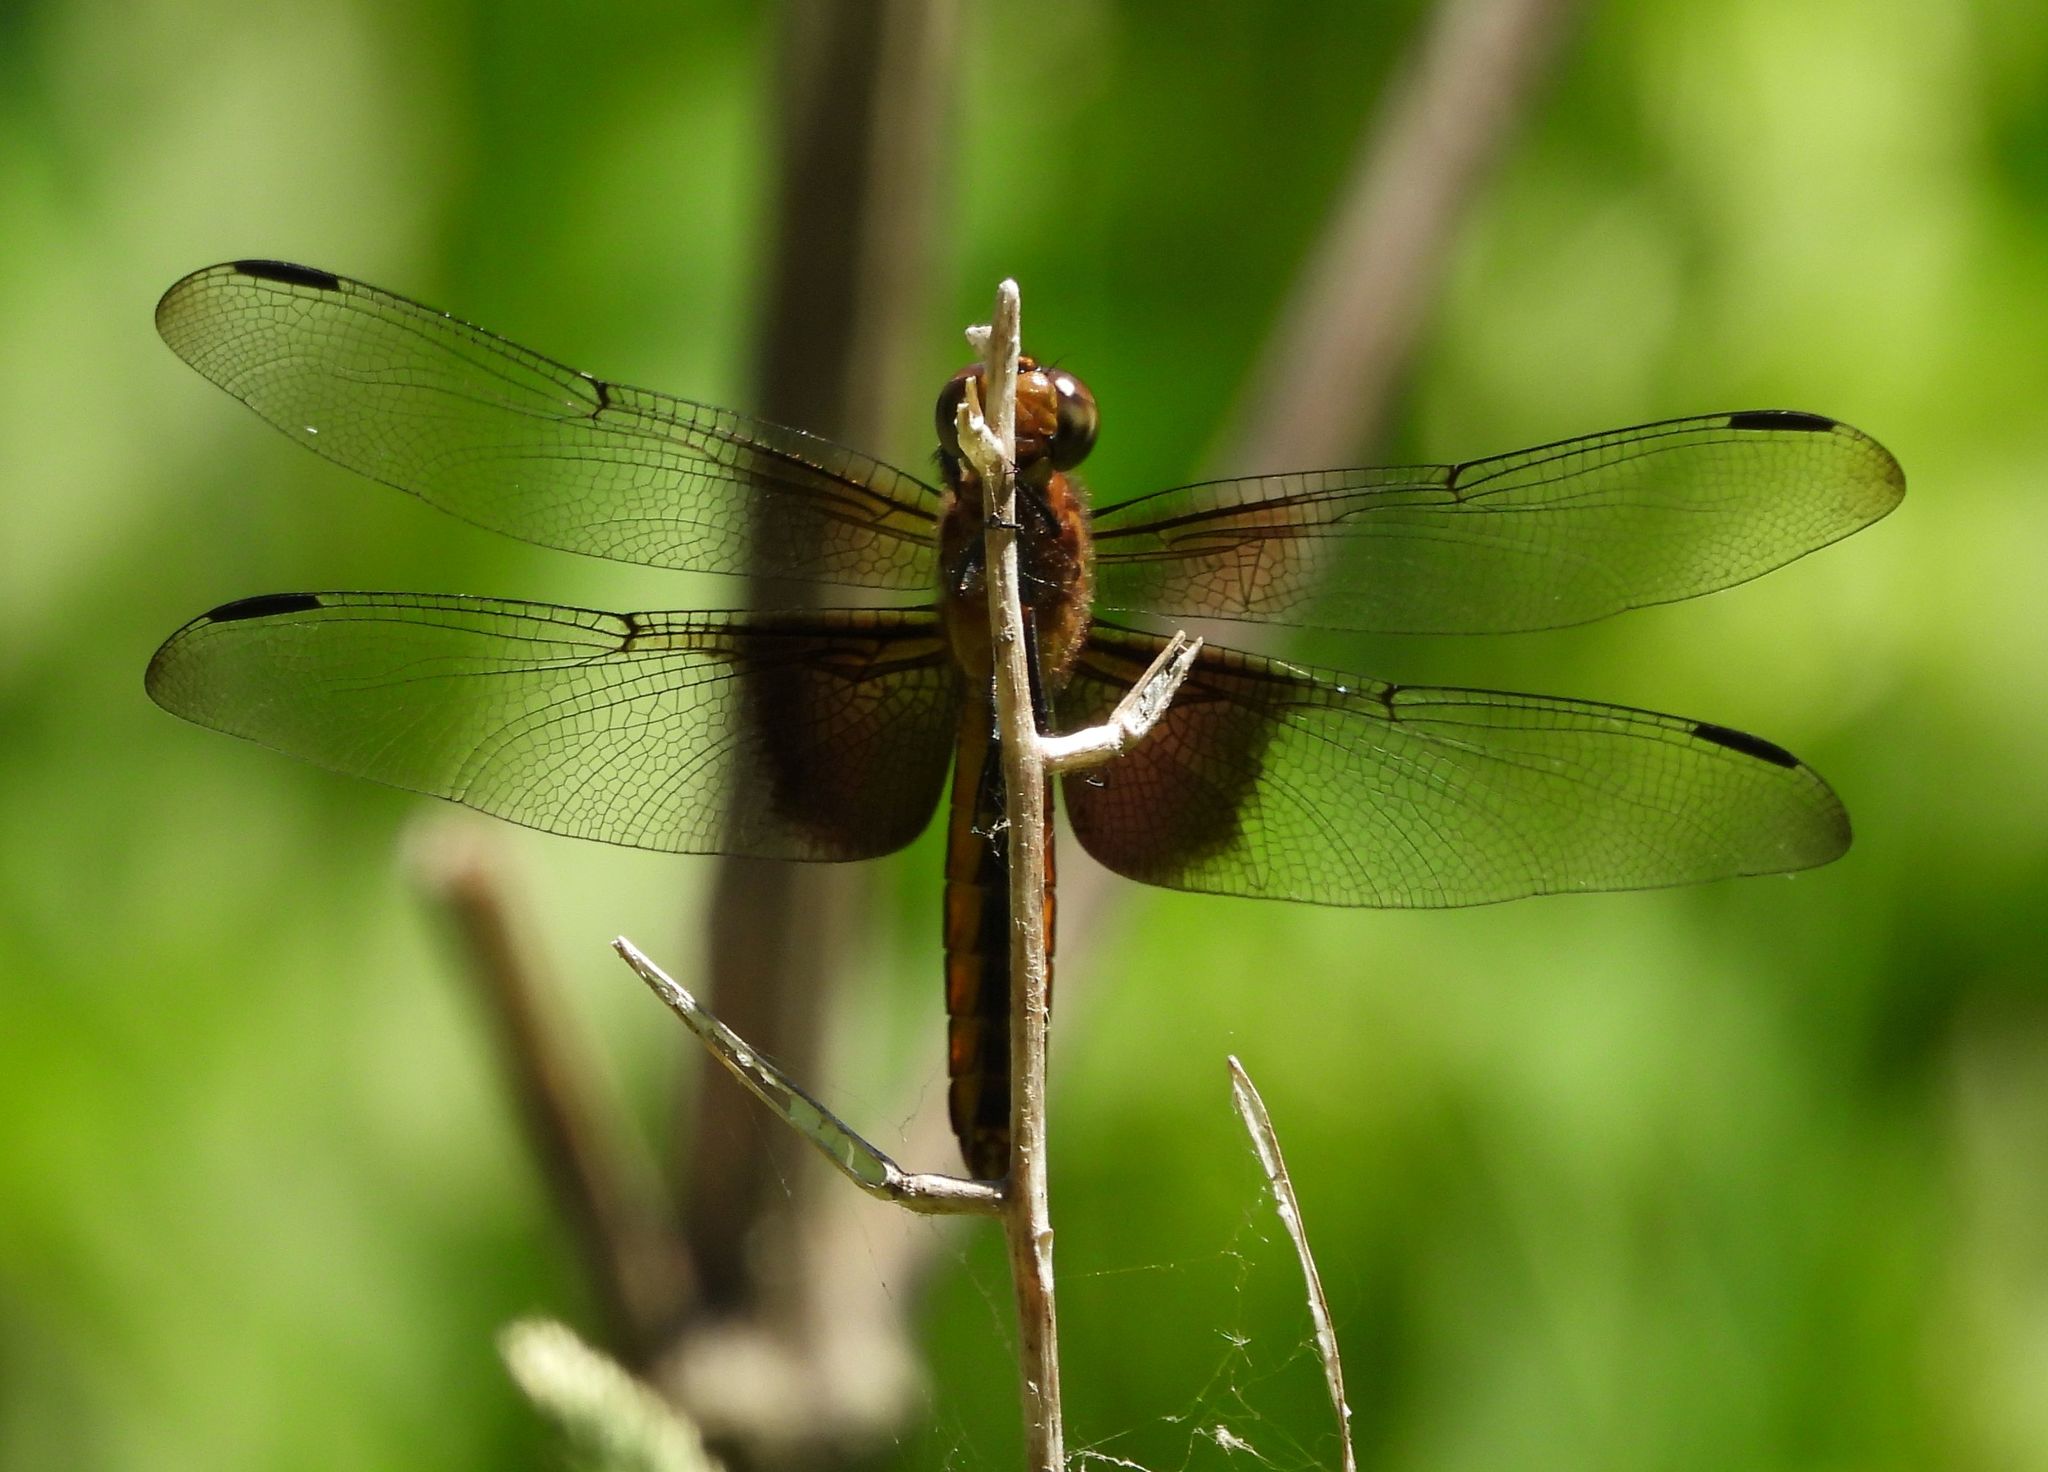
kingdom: Animalia
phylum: Arthropoda
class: Insecta
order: Odonata
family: Libellulidae
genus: Libellula
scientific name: Libellula luctuosa
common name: Widow skimmer
